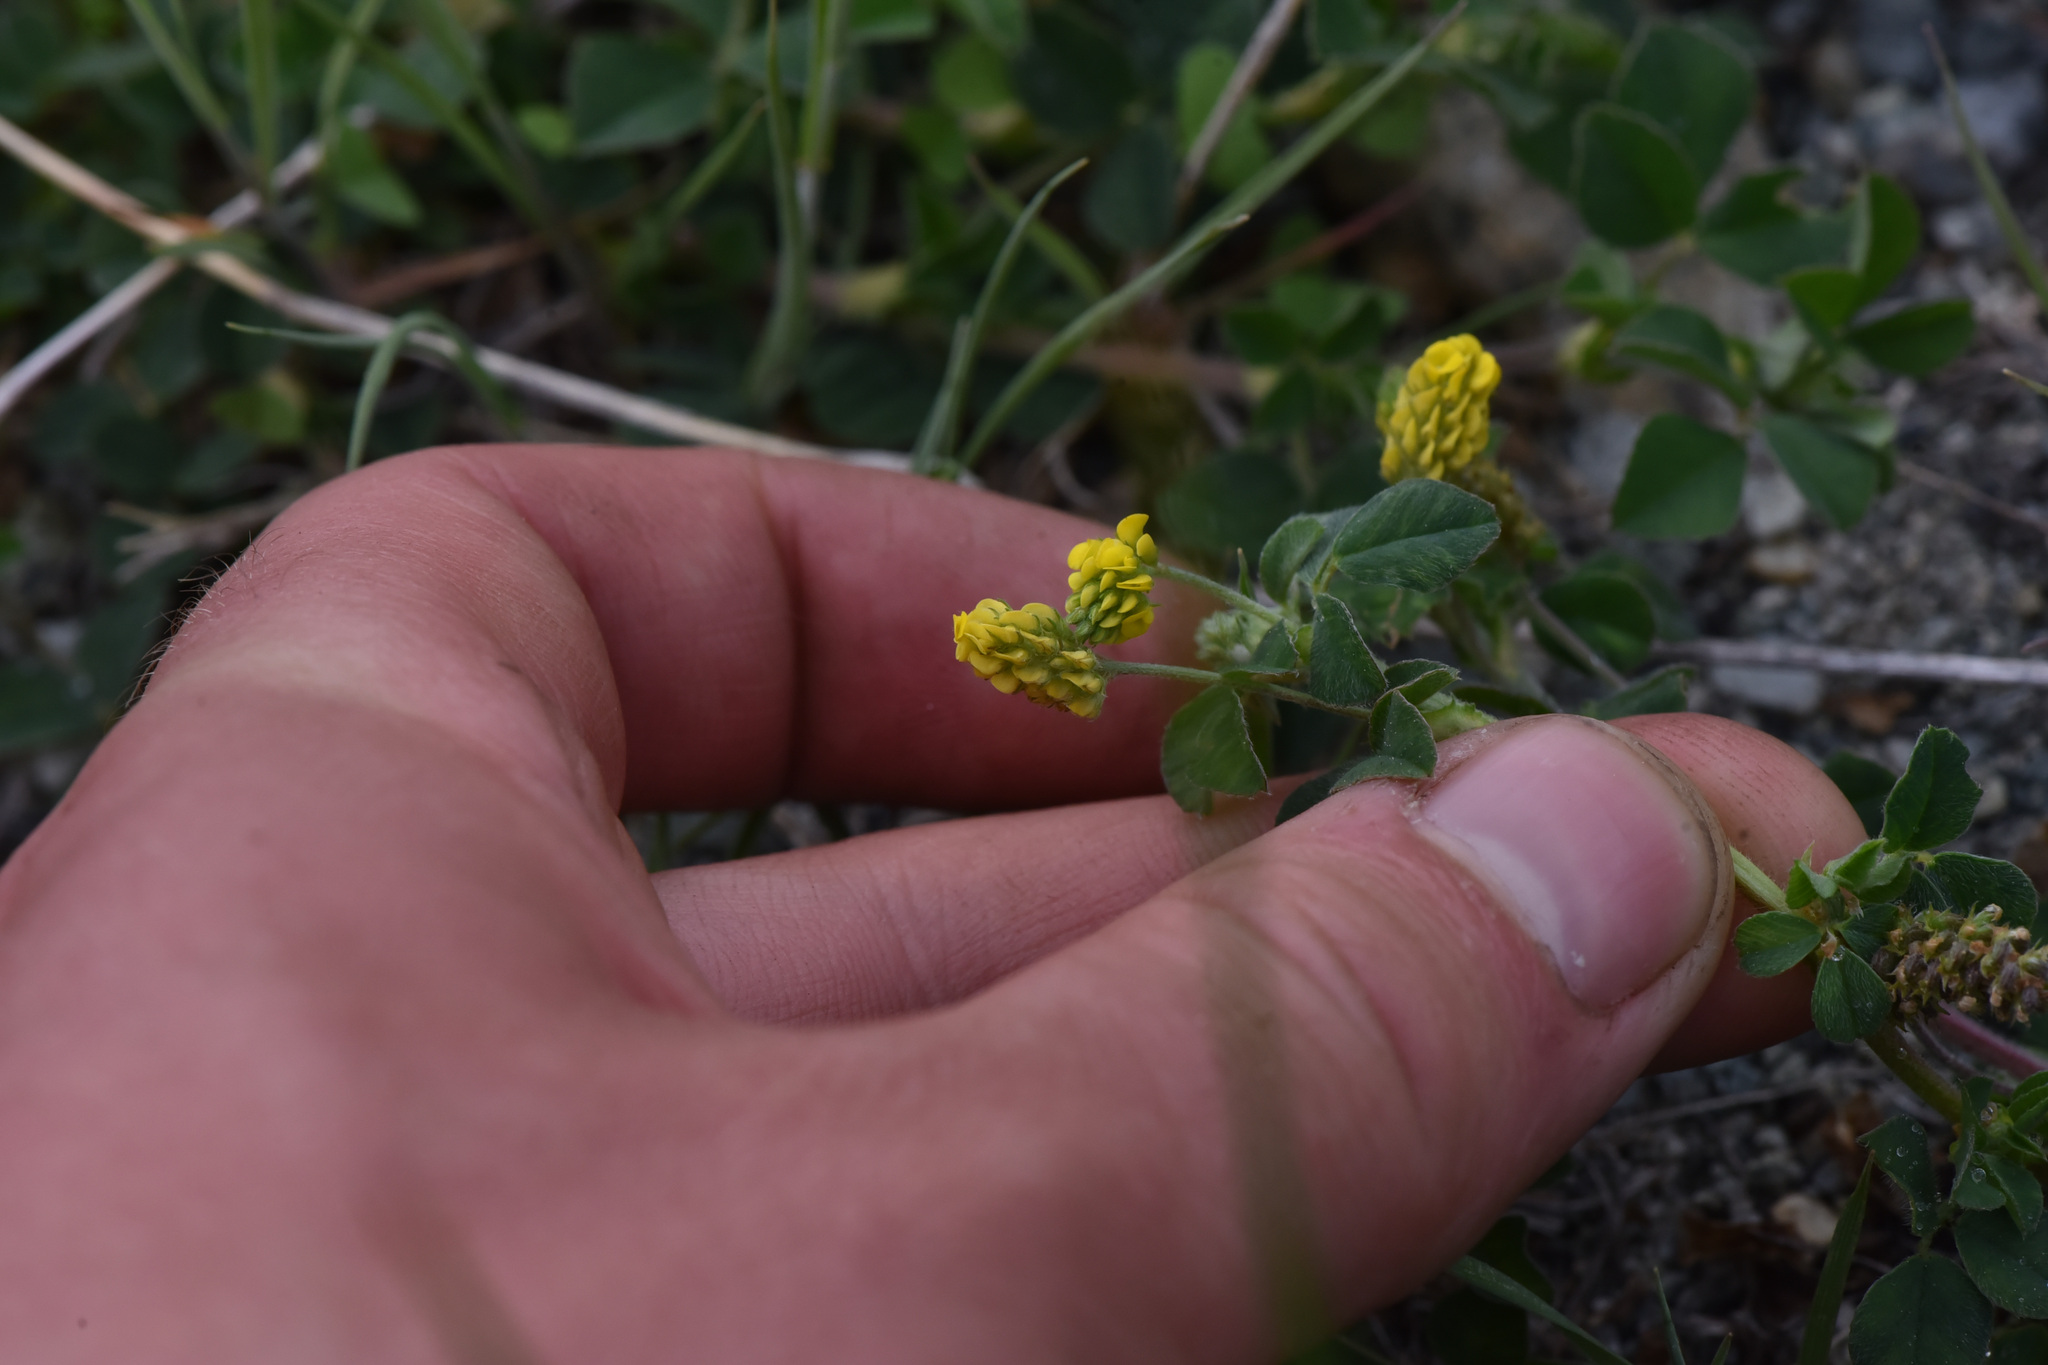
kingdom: Plantae
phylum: Tracheophyta
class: Magnoliopsida
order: Fabales
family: Fabaceae
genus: Medicago
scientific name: Medicago lupulina
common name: Black medick
